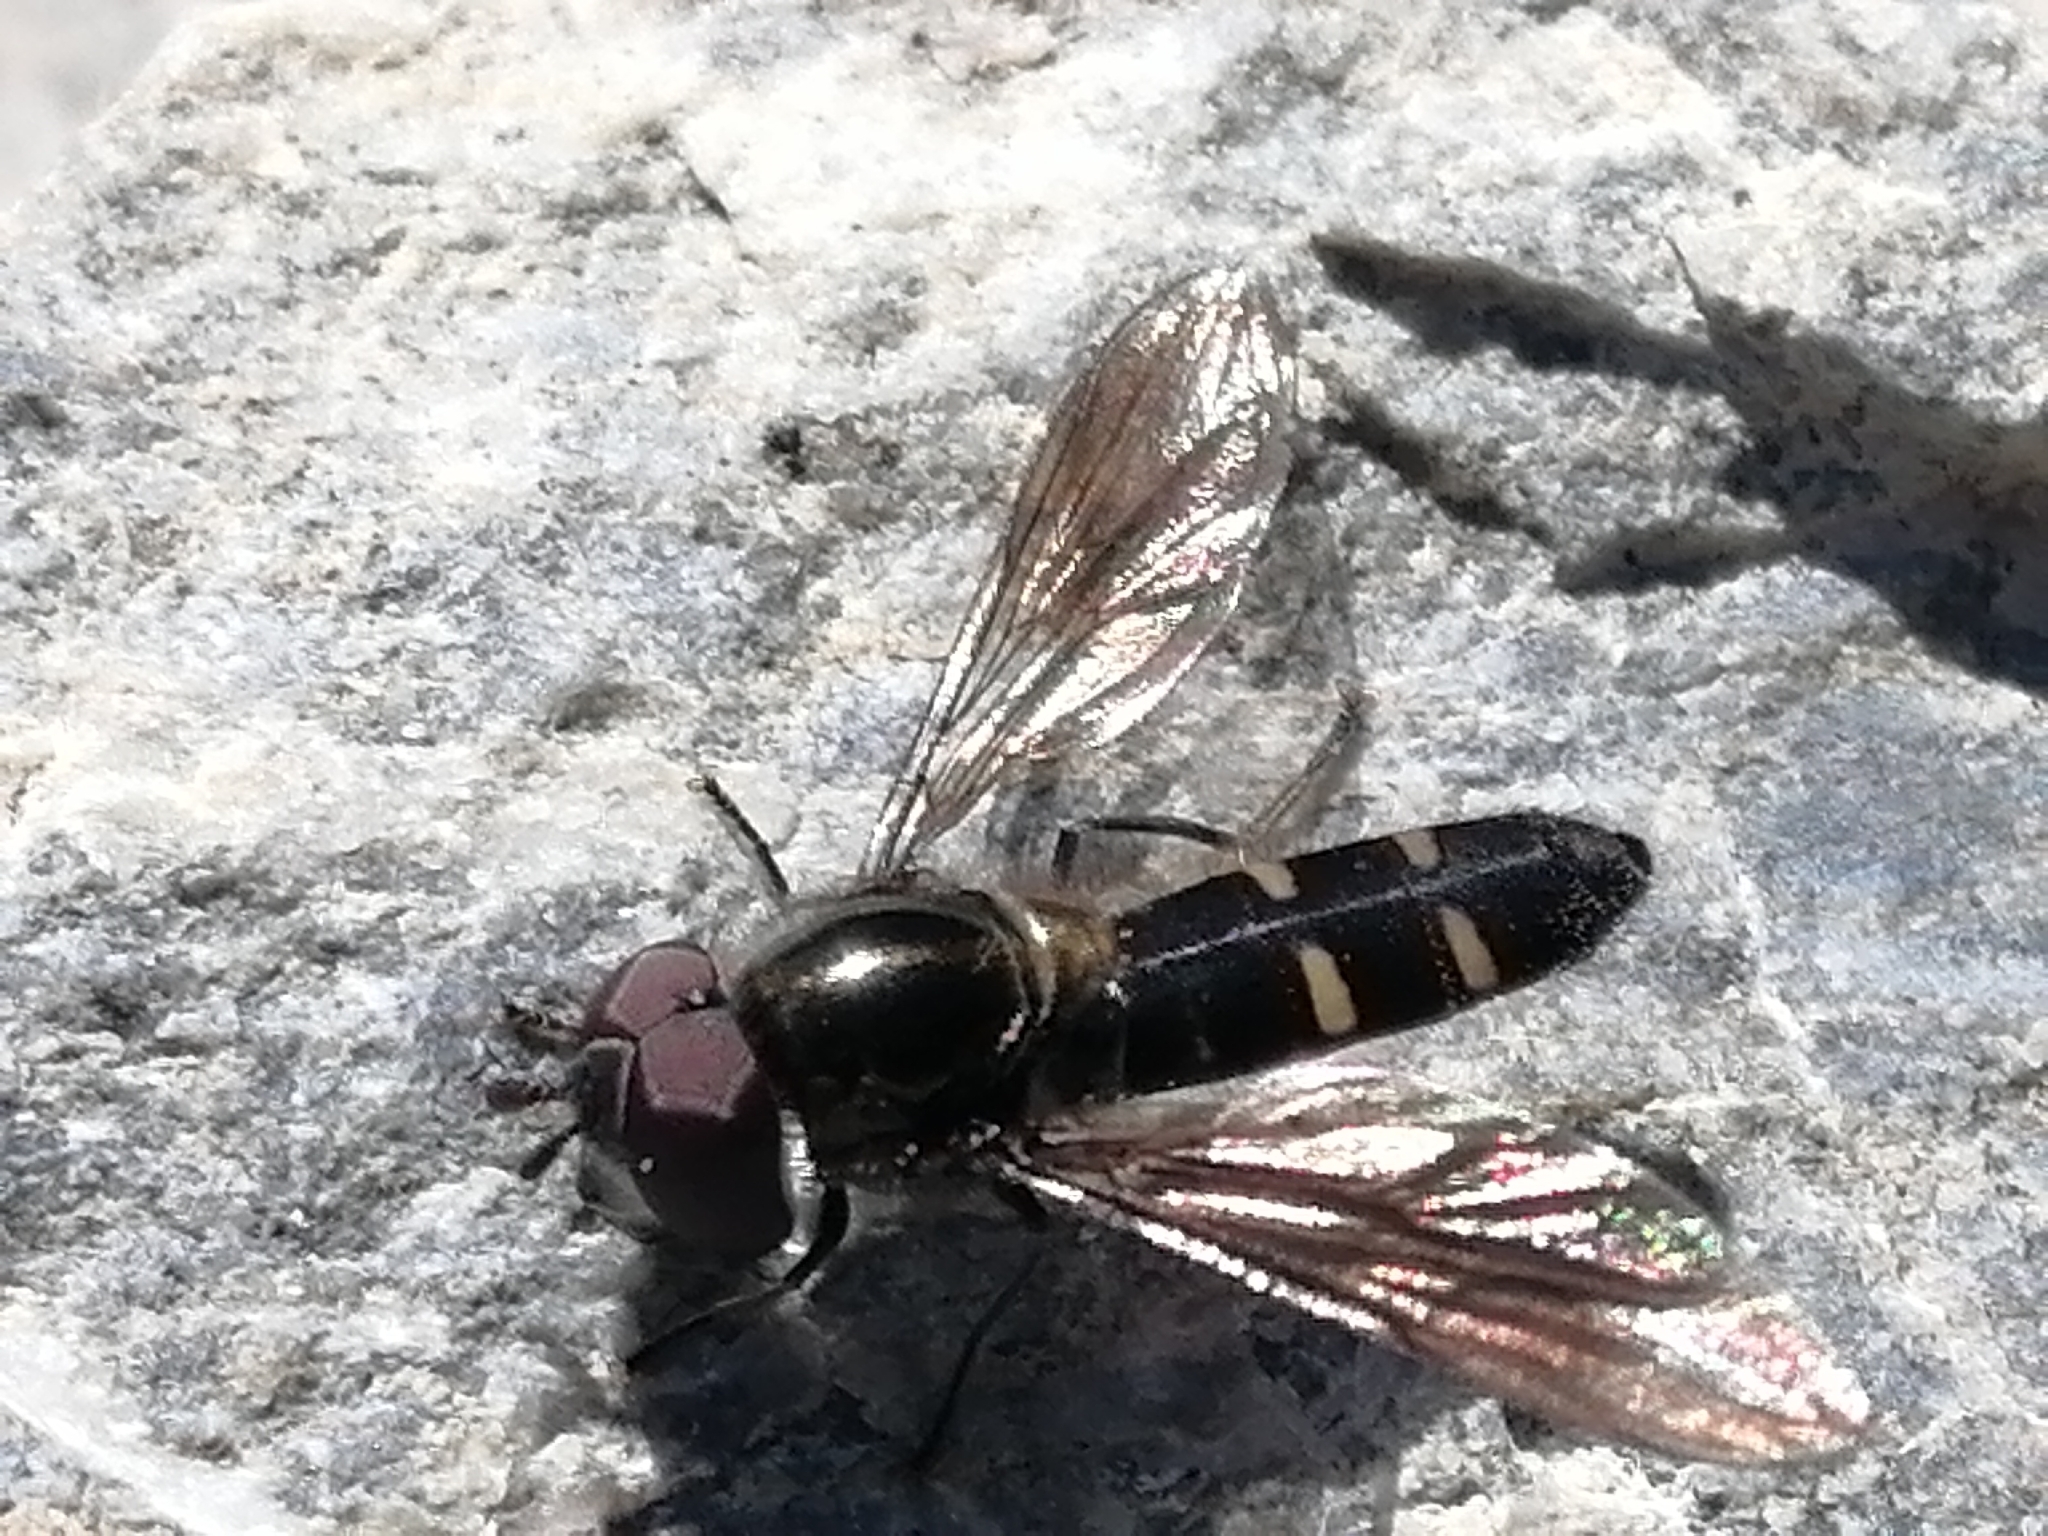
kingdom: Animalia
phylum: Arthropoda
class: Insecta
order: Diptera
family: Syrphidae
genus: Melangyna
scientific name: Melangyna novaezelandiae
